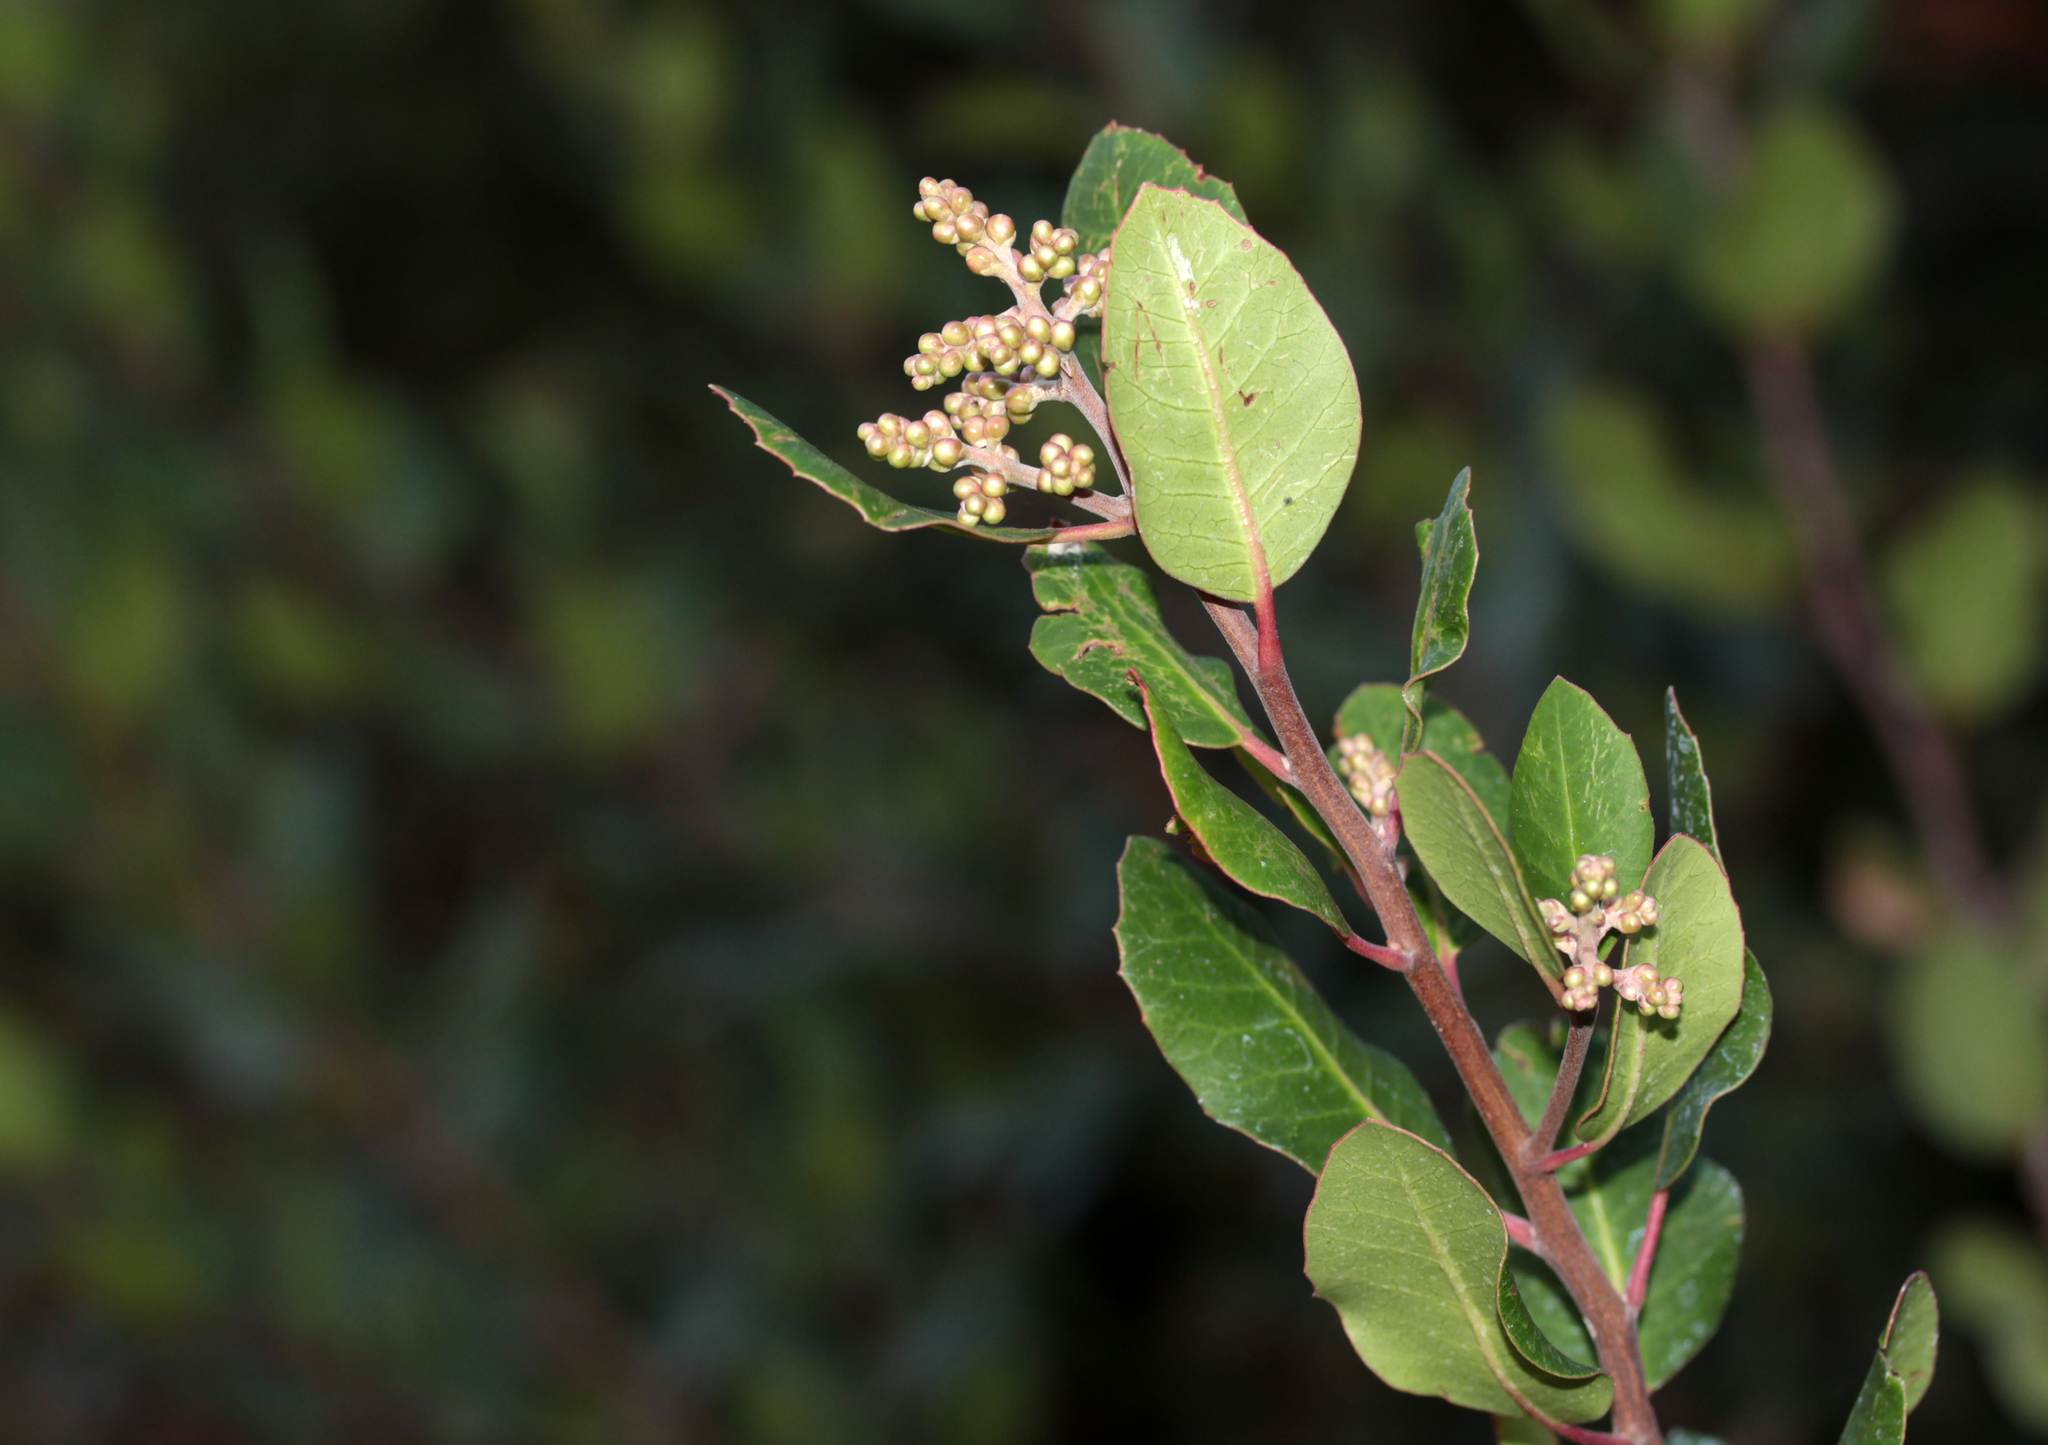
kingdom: Plantae
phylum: Tracheophyta
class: Magnoliopsida
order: Sapindales
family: Anacardiaceae
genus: Rhus
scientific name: Rhus integrifolia
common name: Lemonade sumac
